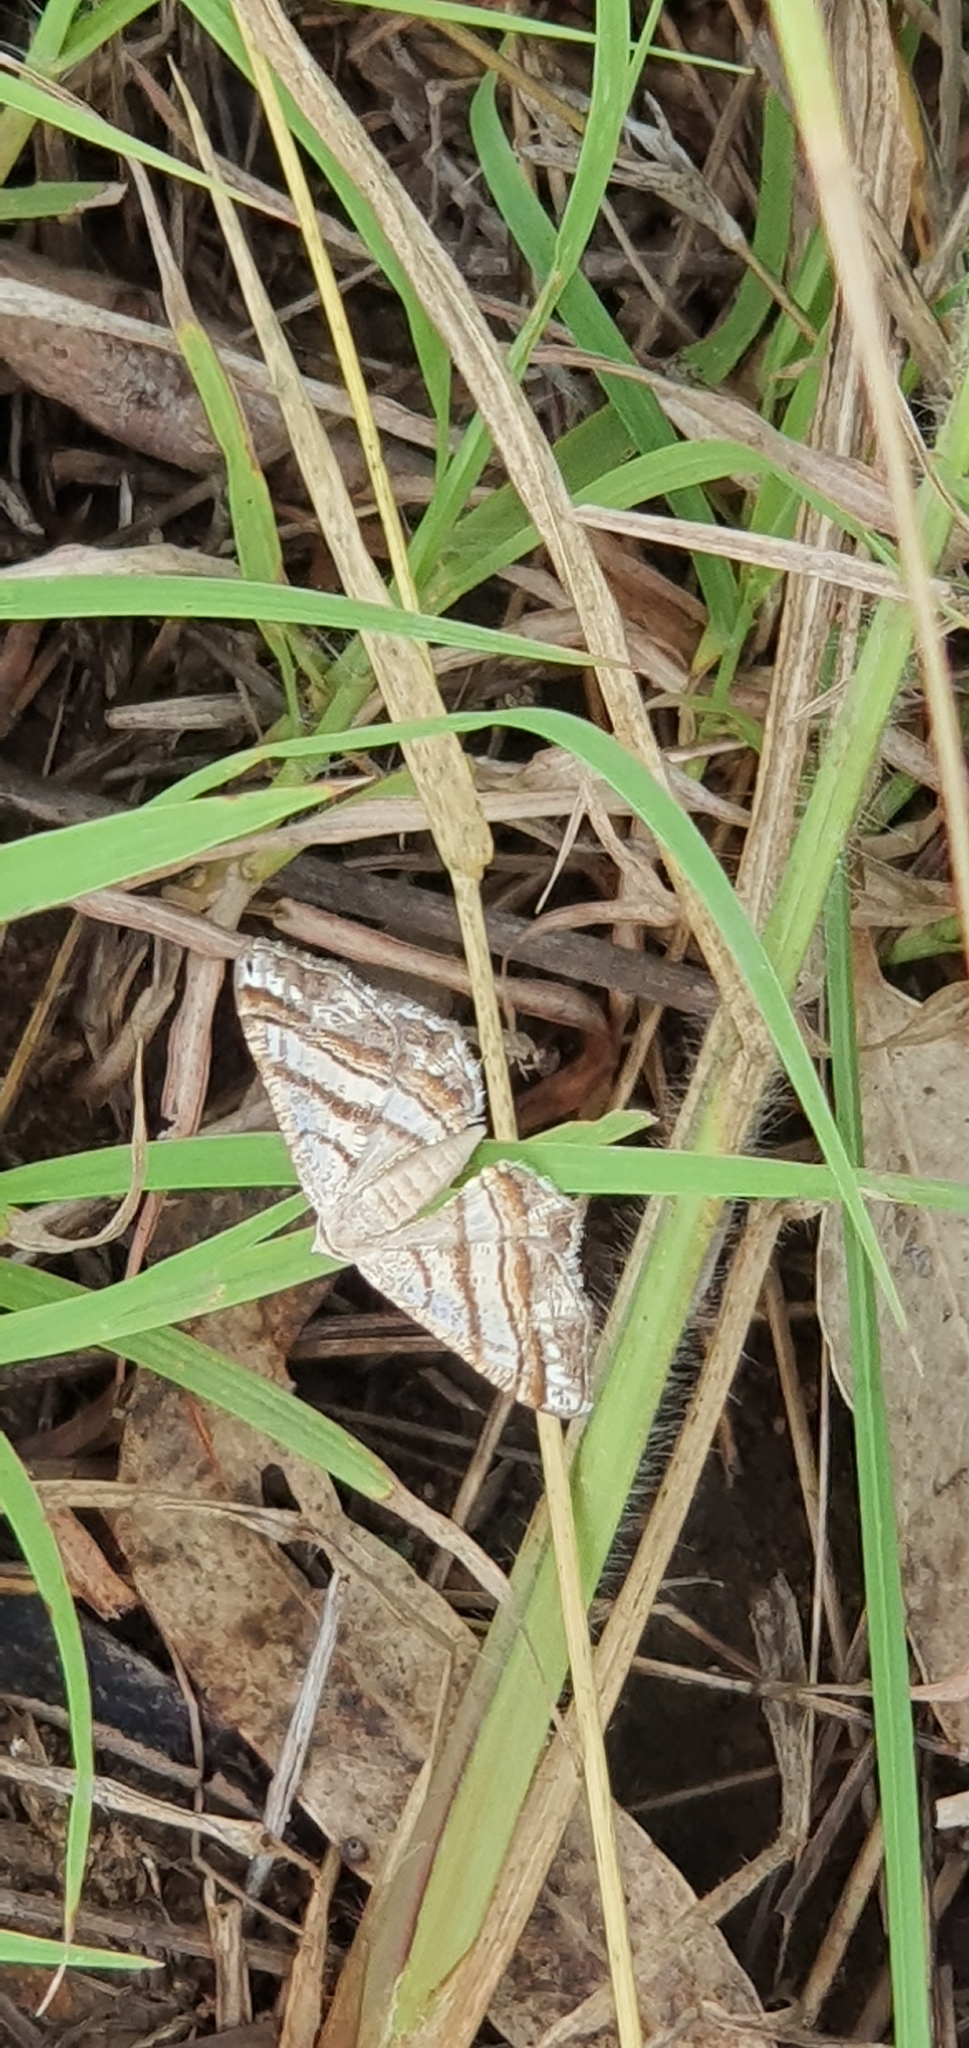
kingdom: Animalia
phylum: Arthropoda
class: Insecta
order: Lepidoptera
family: Geometridae
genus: Chiasmia
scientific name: Chiasmia margaritis
